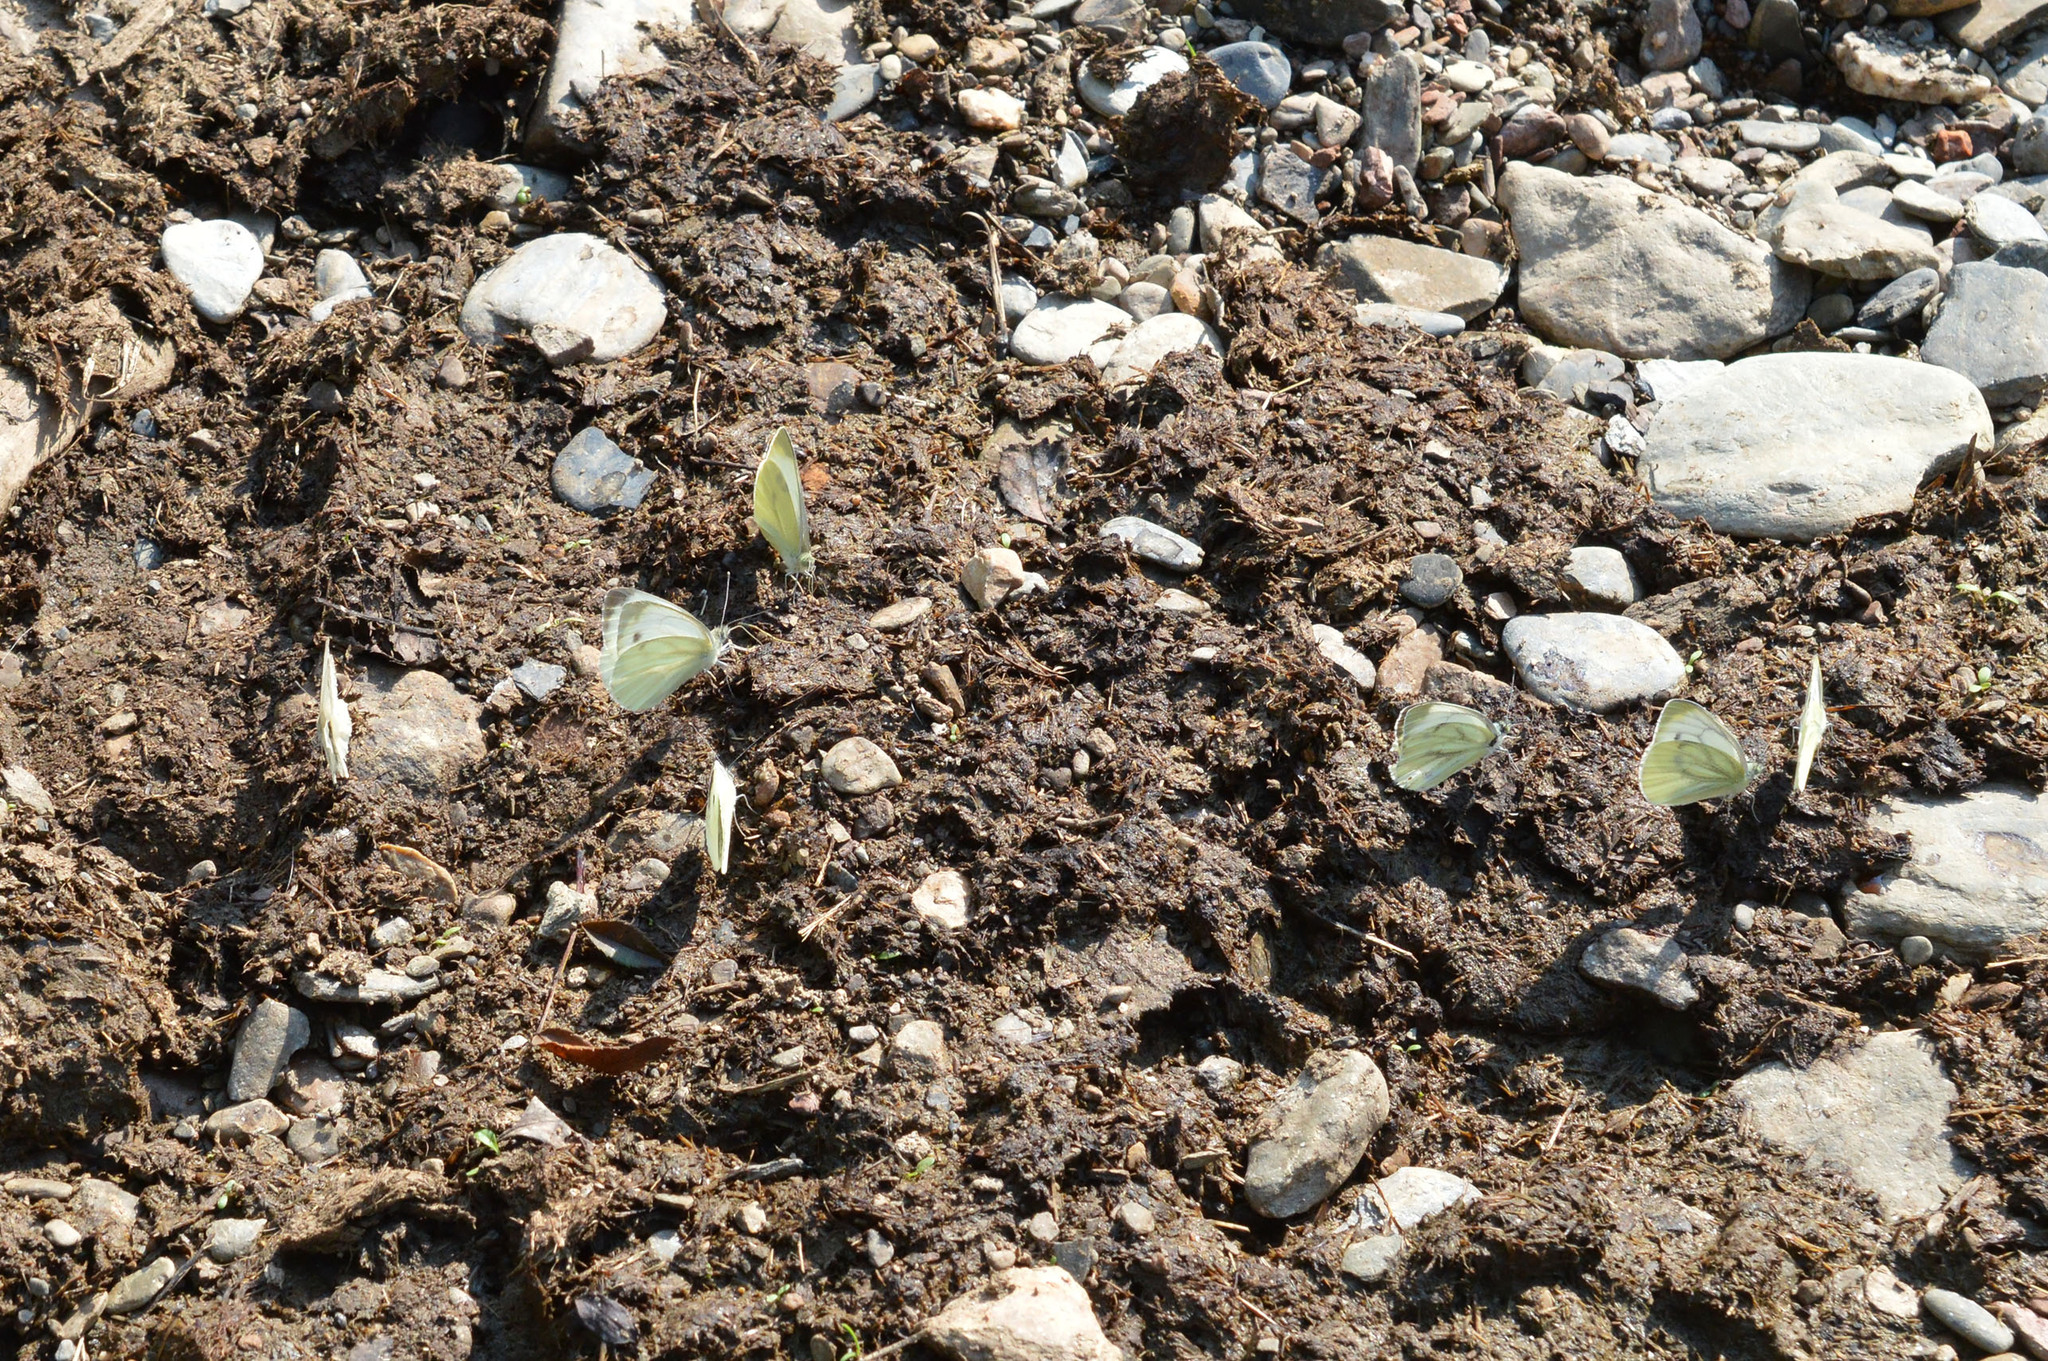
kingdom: Animalia
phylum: Arthropoda
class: Insecta
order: Lepidoptera
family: Pieridae
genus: Pieris
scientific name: Pieris napi
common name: Green-veined white
